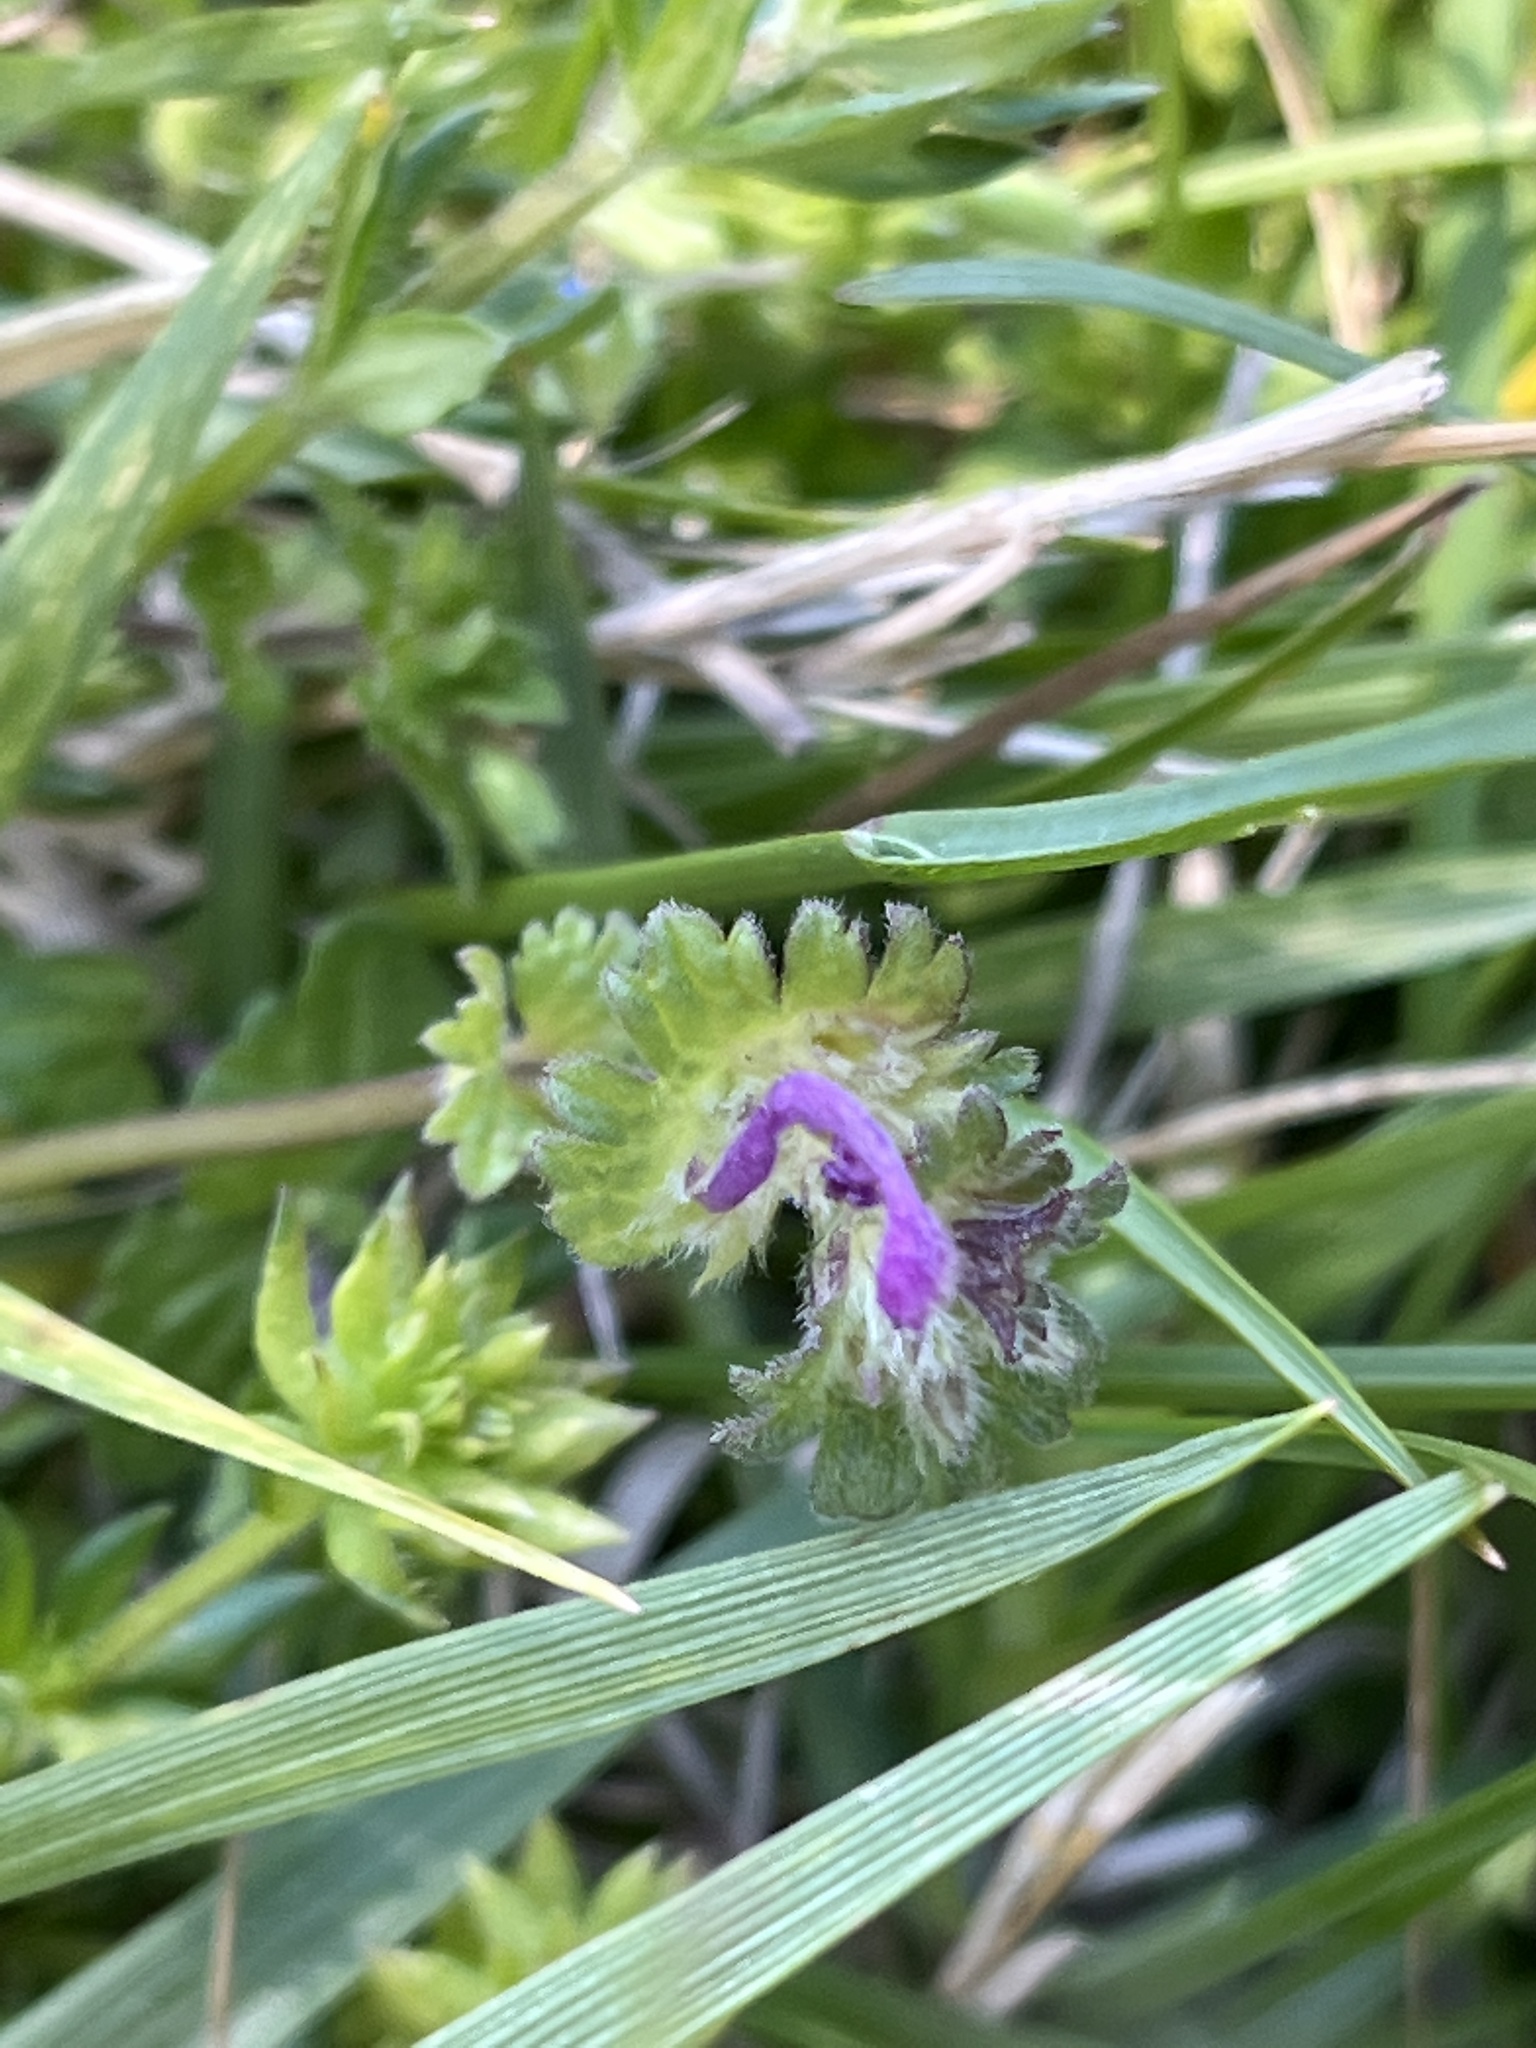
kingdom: Plantae
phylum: Tracheophyta
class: Magnoliopsida
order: Lamiales
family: Lamiaceae
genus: Lamium
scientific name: Lamium amplexicaule
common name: Henbit dead-nettle
